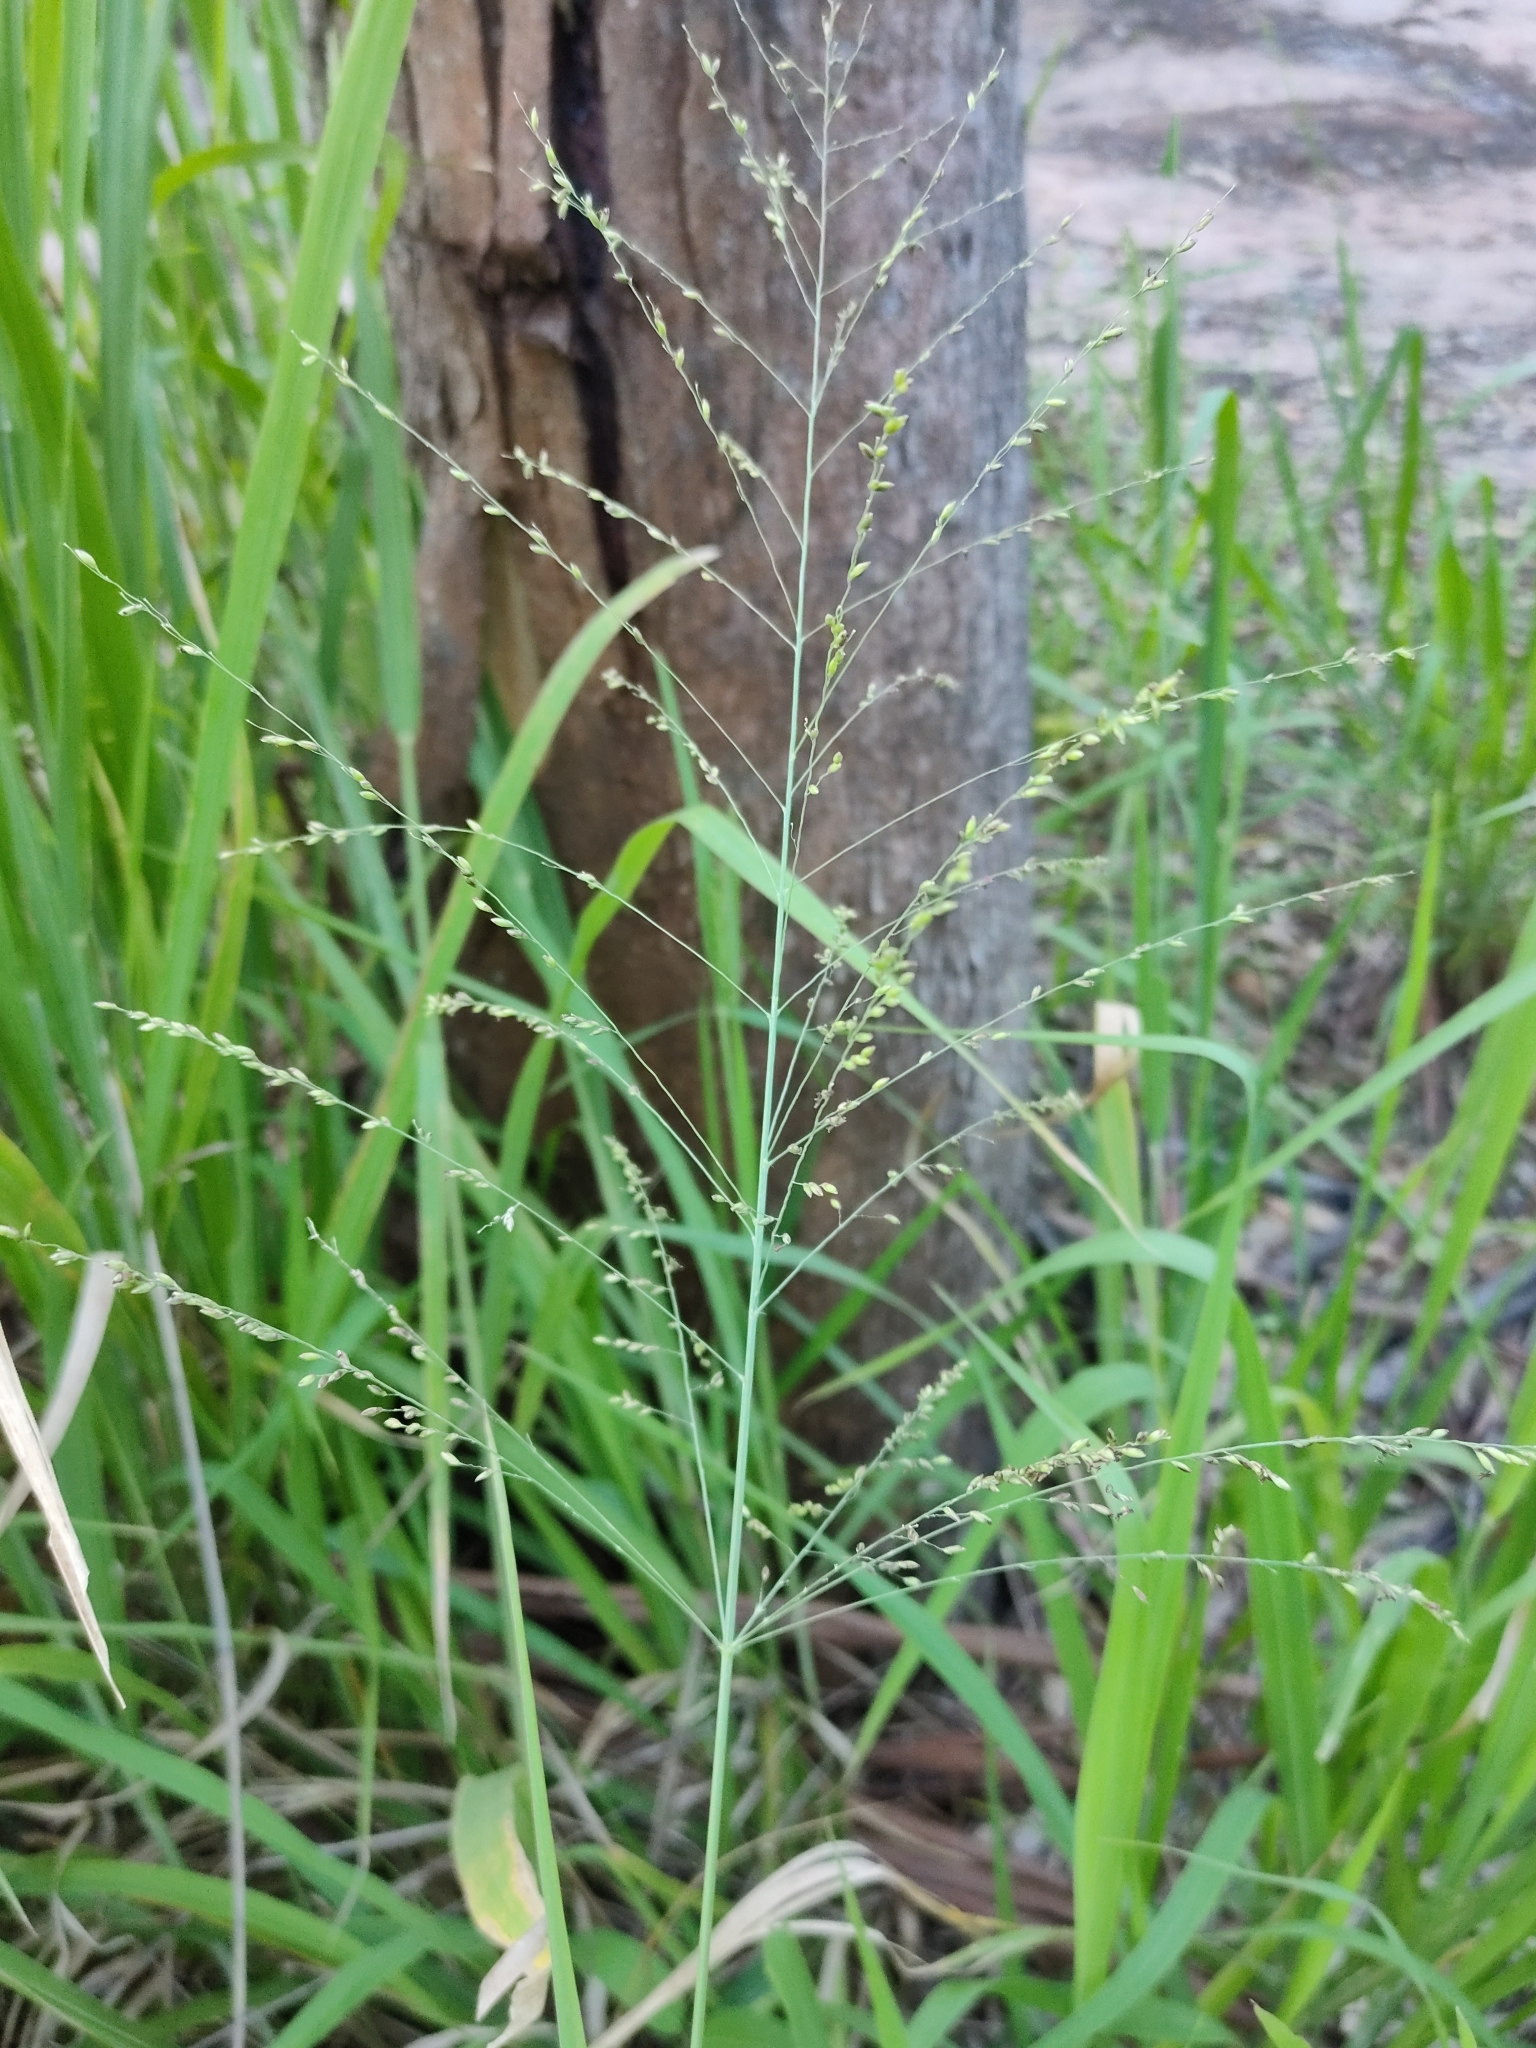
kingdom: Plantae
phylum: Tracheophyta
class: Liliopsida
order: Poales
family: Poaceae
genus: Megathyrsus
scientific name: Megathyrsus maximus
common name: Guineagrass
